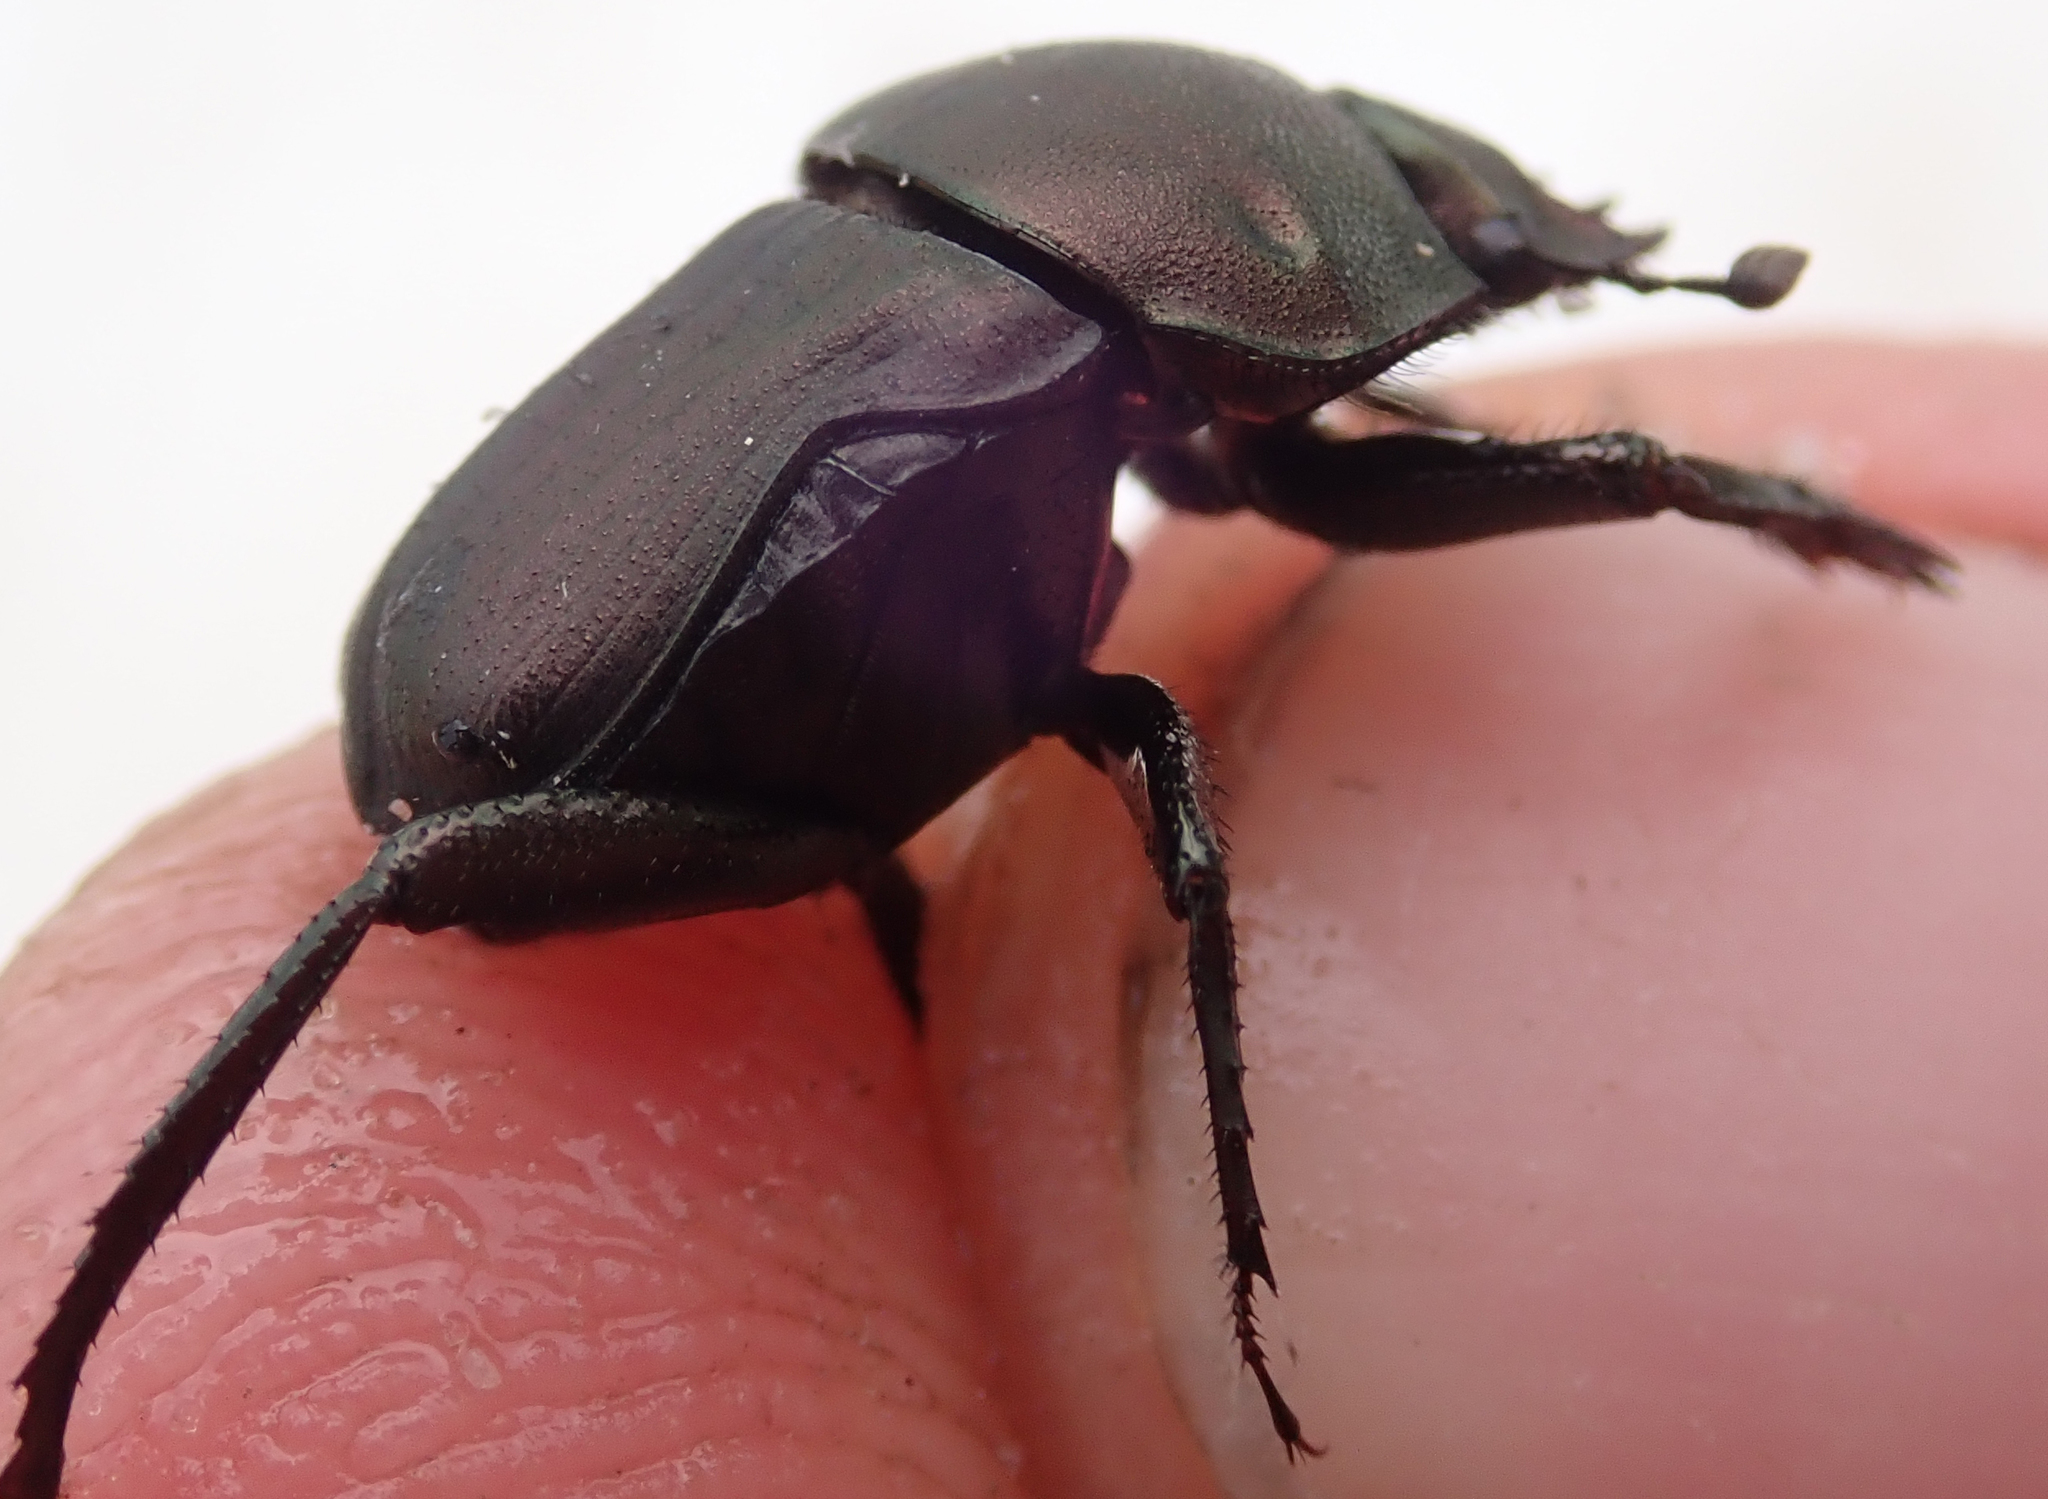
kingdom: Animalia
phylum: Arthropoda
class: Insecta
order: Coleoptera
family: Scarabaeidae
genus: Allogymnopleurus
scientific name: Allogymnopleurus splendidus
